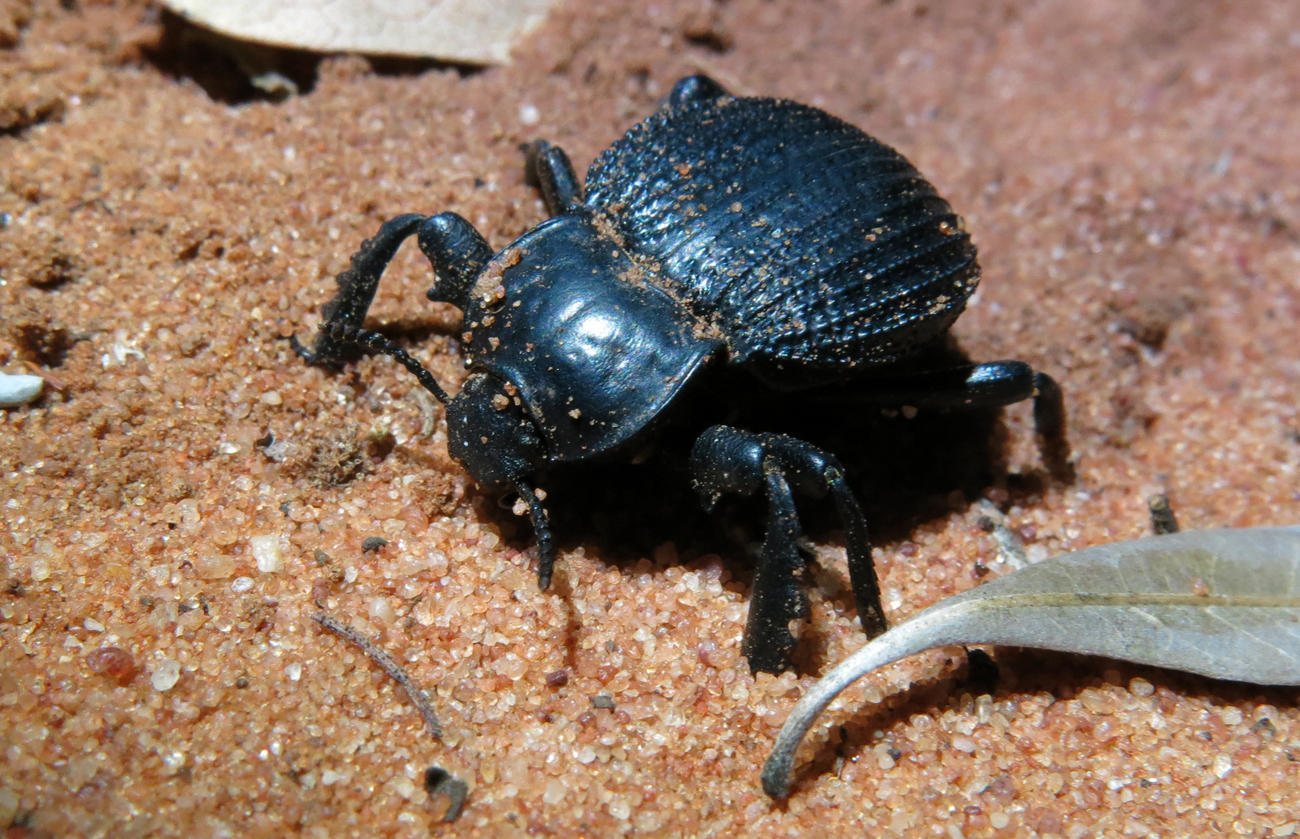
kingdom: Animalia
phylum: Arthropoda
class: Insecta
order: Coleoptera
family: Tenebrionidae
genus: Gonopus
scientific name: Gonopus
